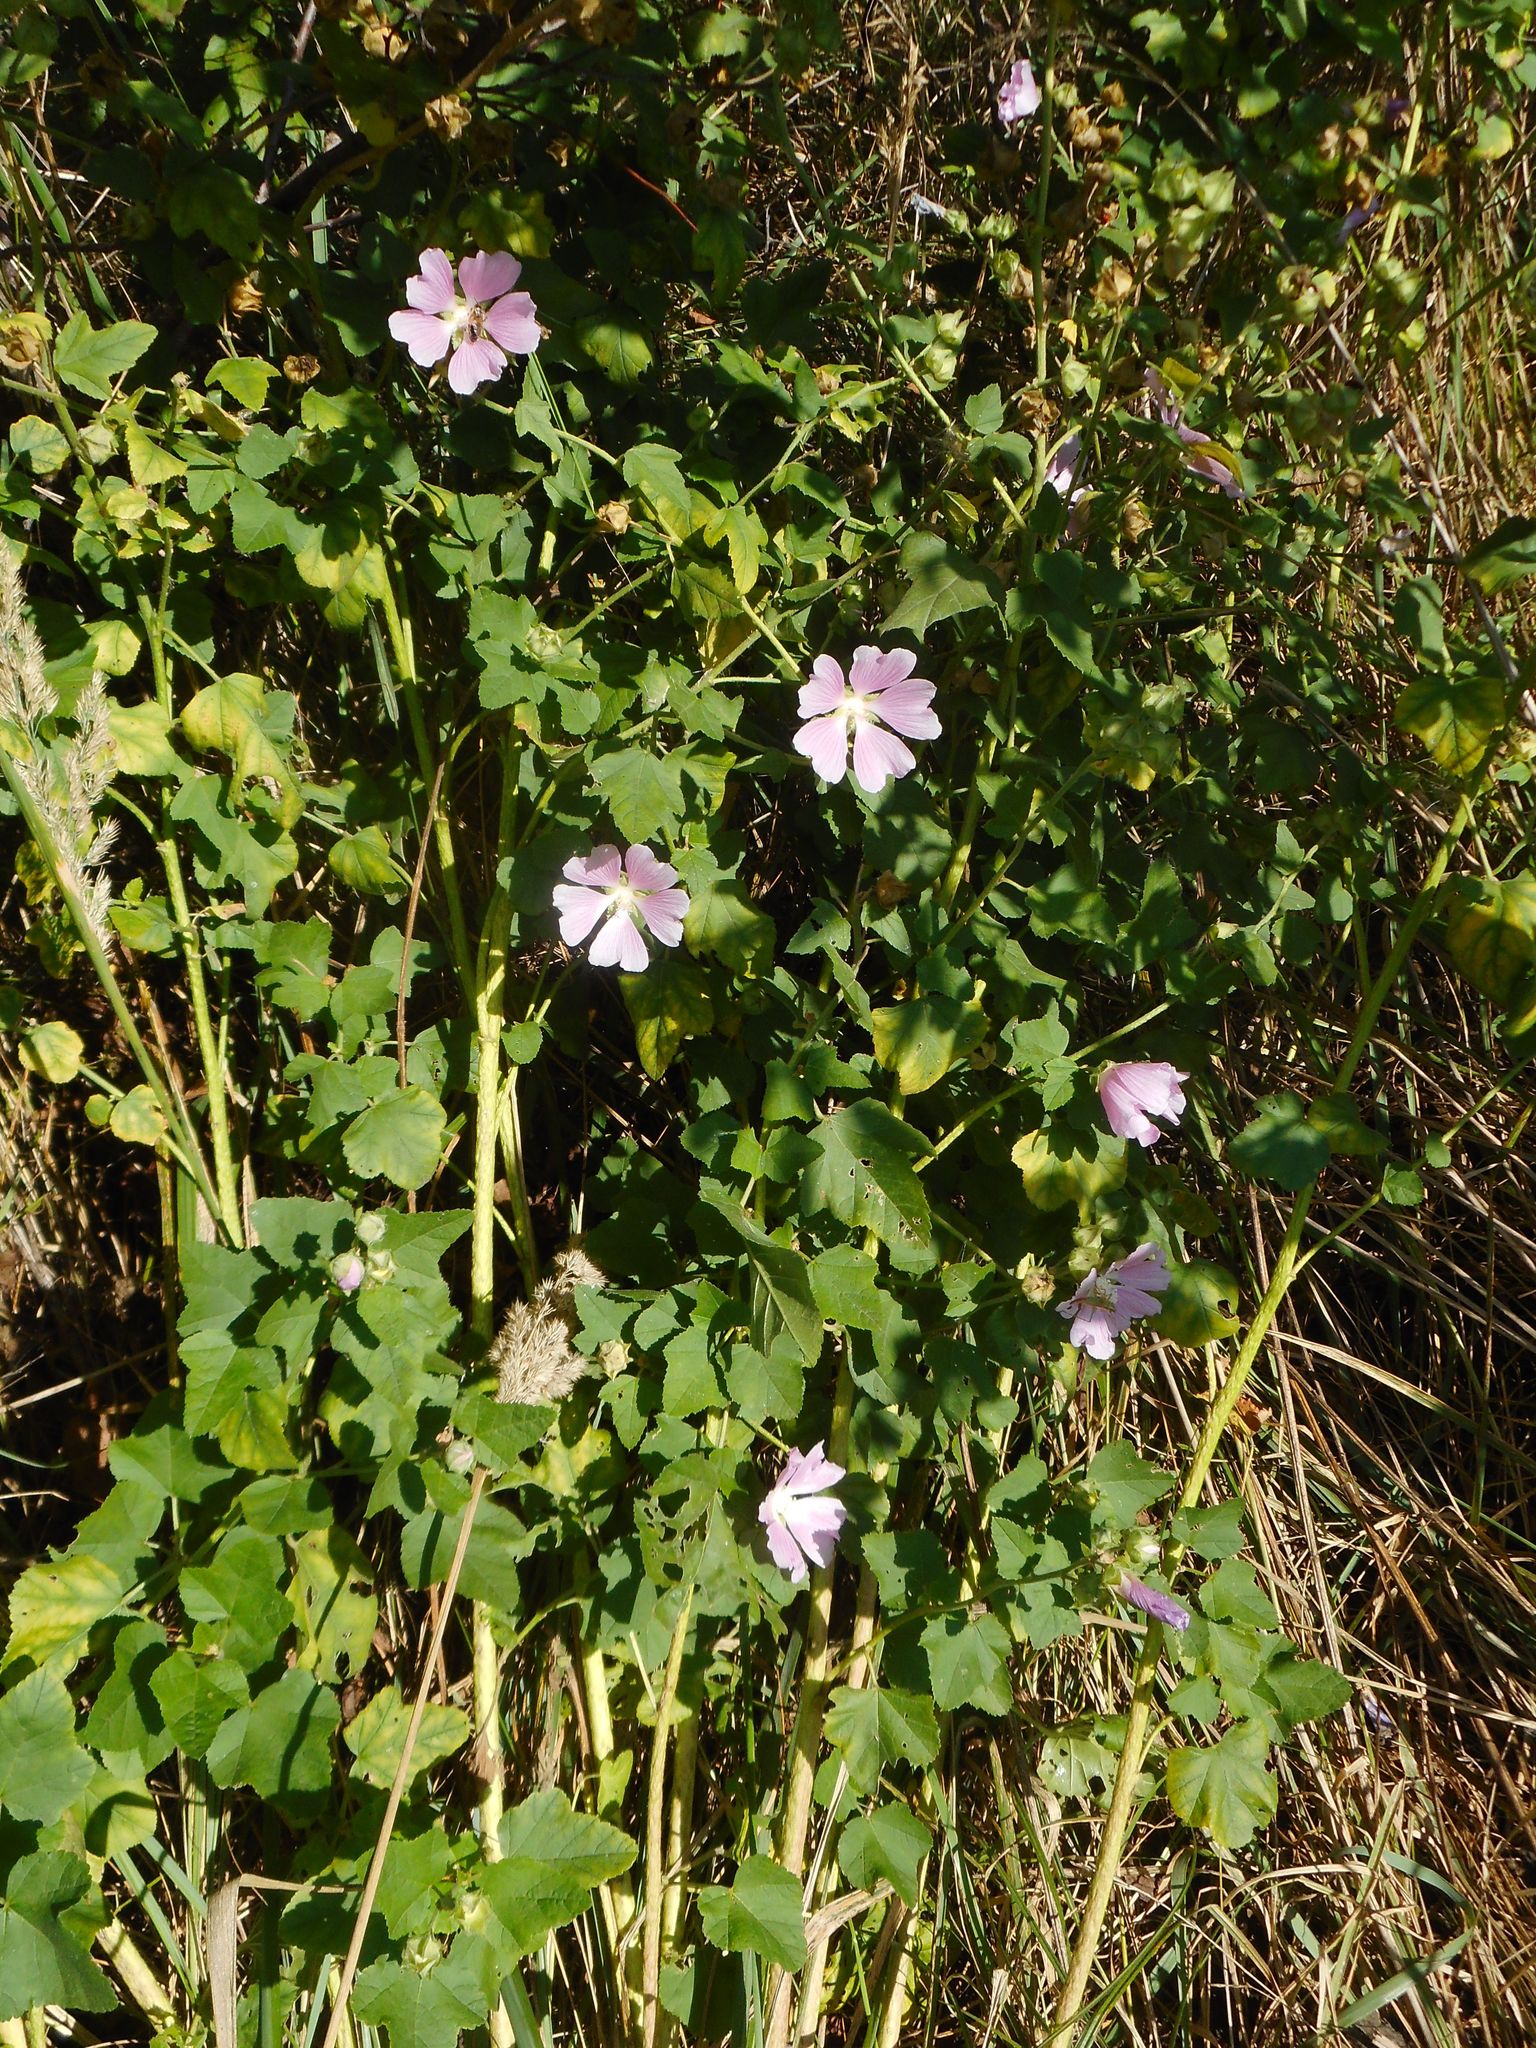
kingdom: Plantae
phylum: Tracheophyta
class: Magnoliopsida
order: Malvales
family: Malvaceae
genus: Malva
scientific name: Malva thuringiaca
